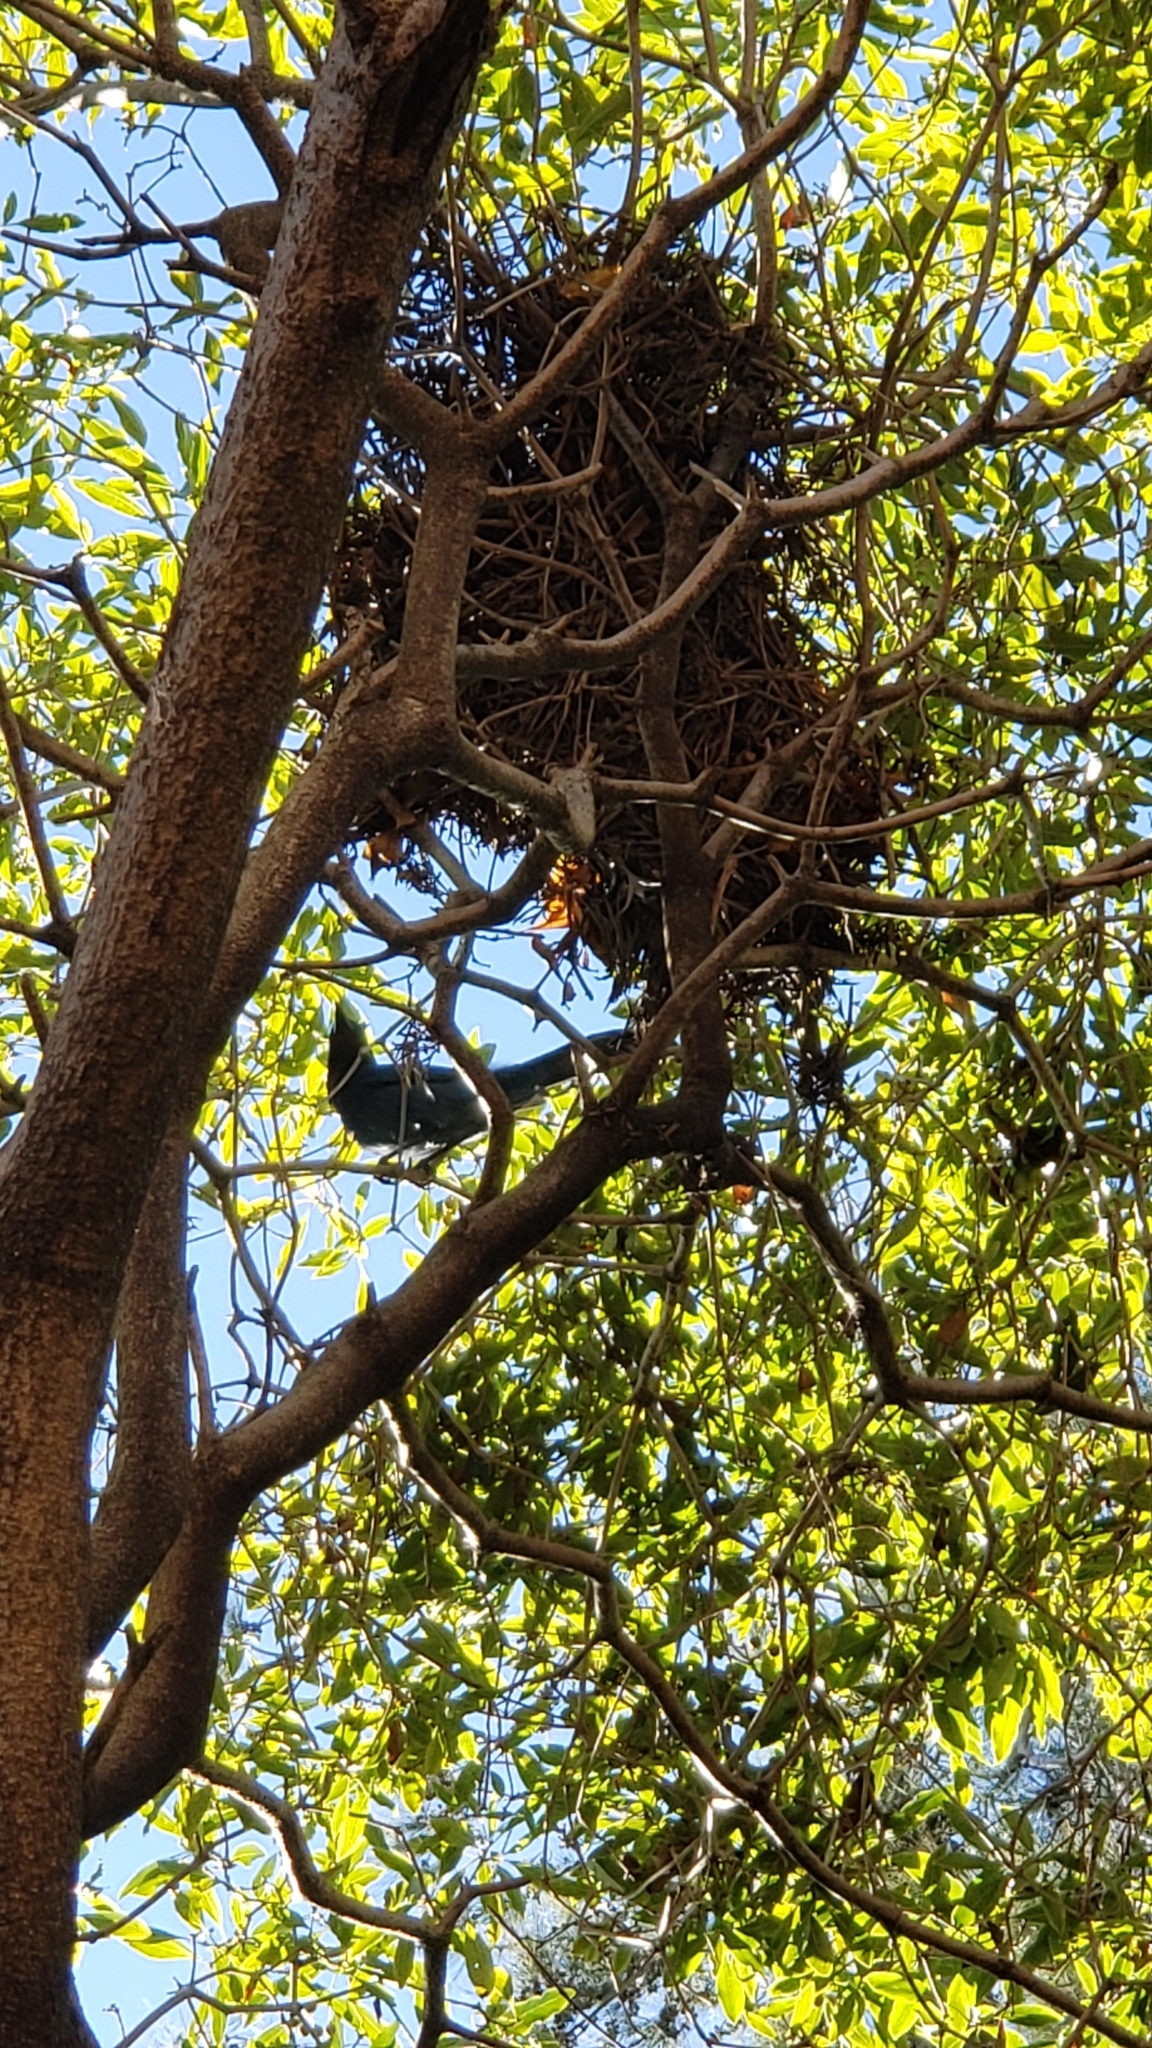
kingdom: Animalia
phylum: Chordata
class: Aves
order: Passeriformes
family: Corvidae
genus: Cyanocitta
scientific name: Cyanocitta stelleri
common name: Steller's jay
